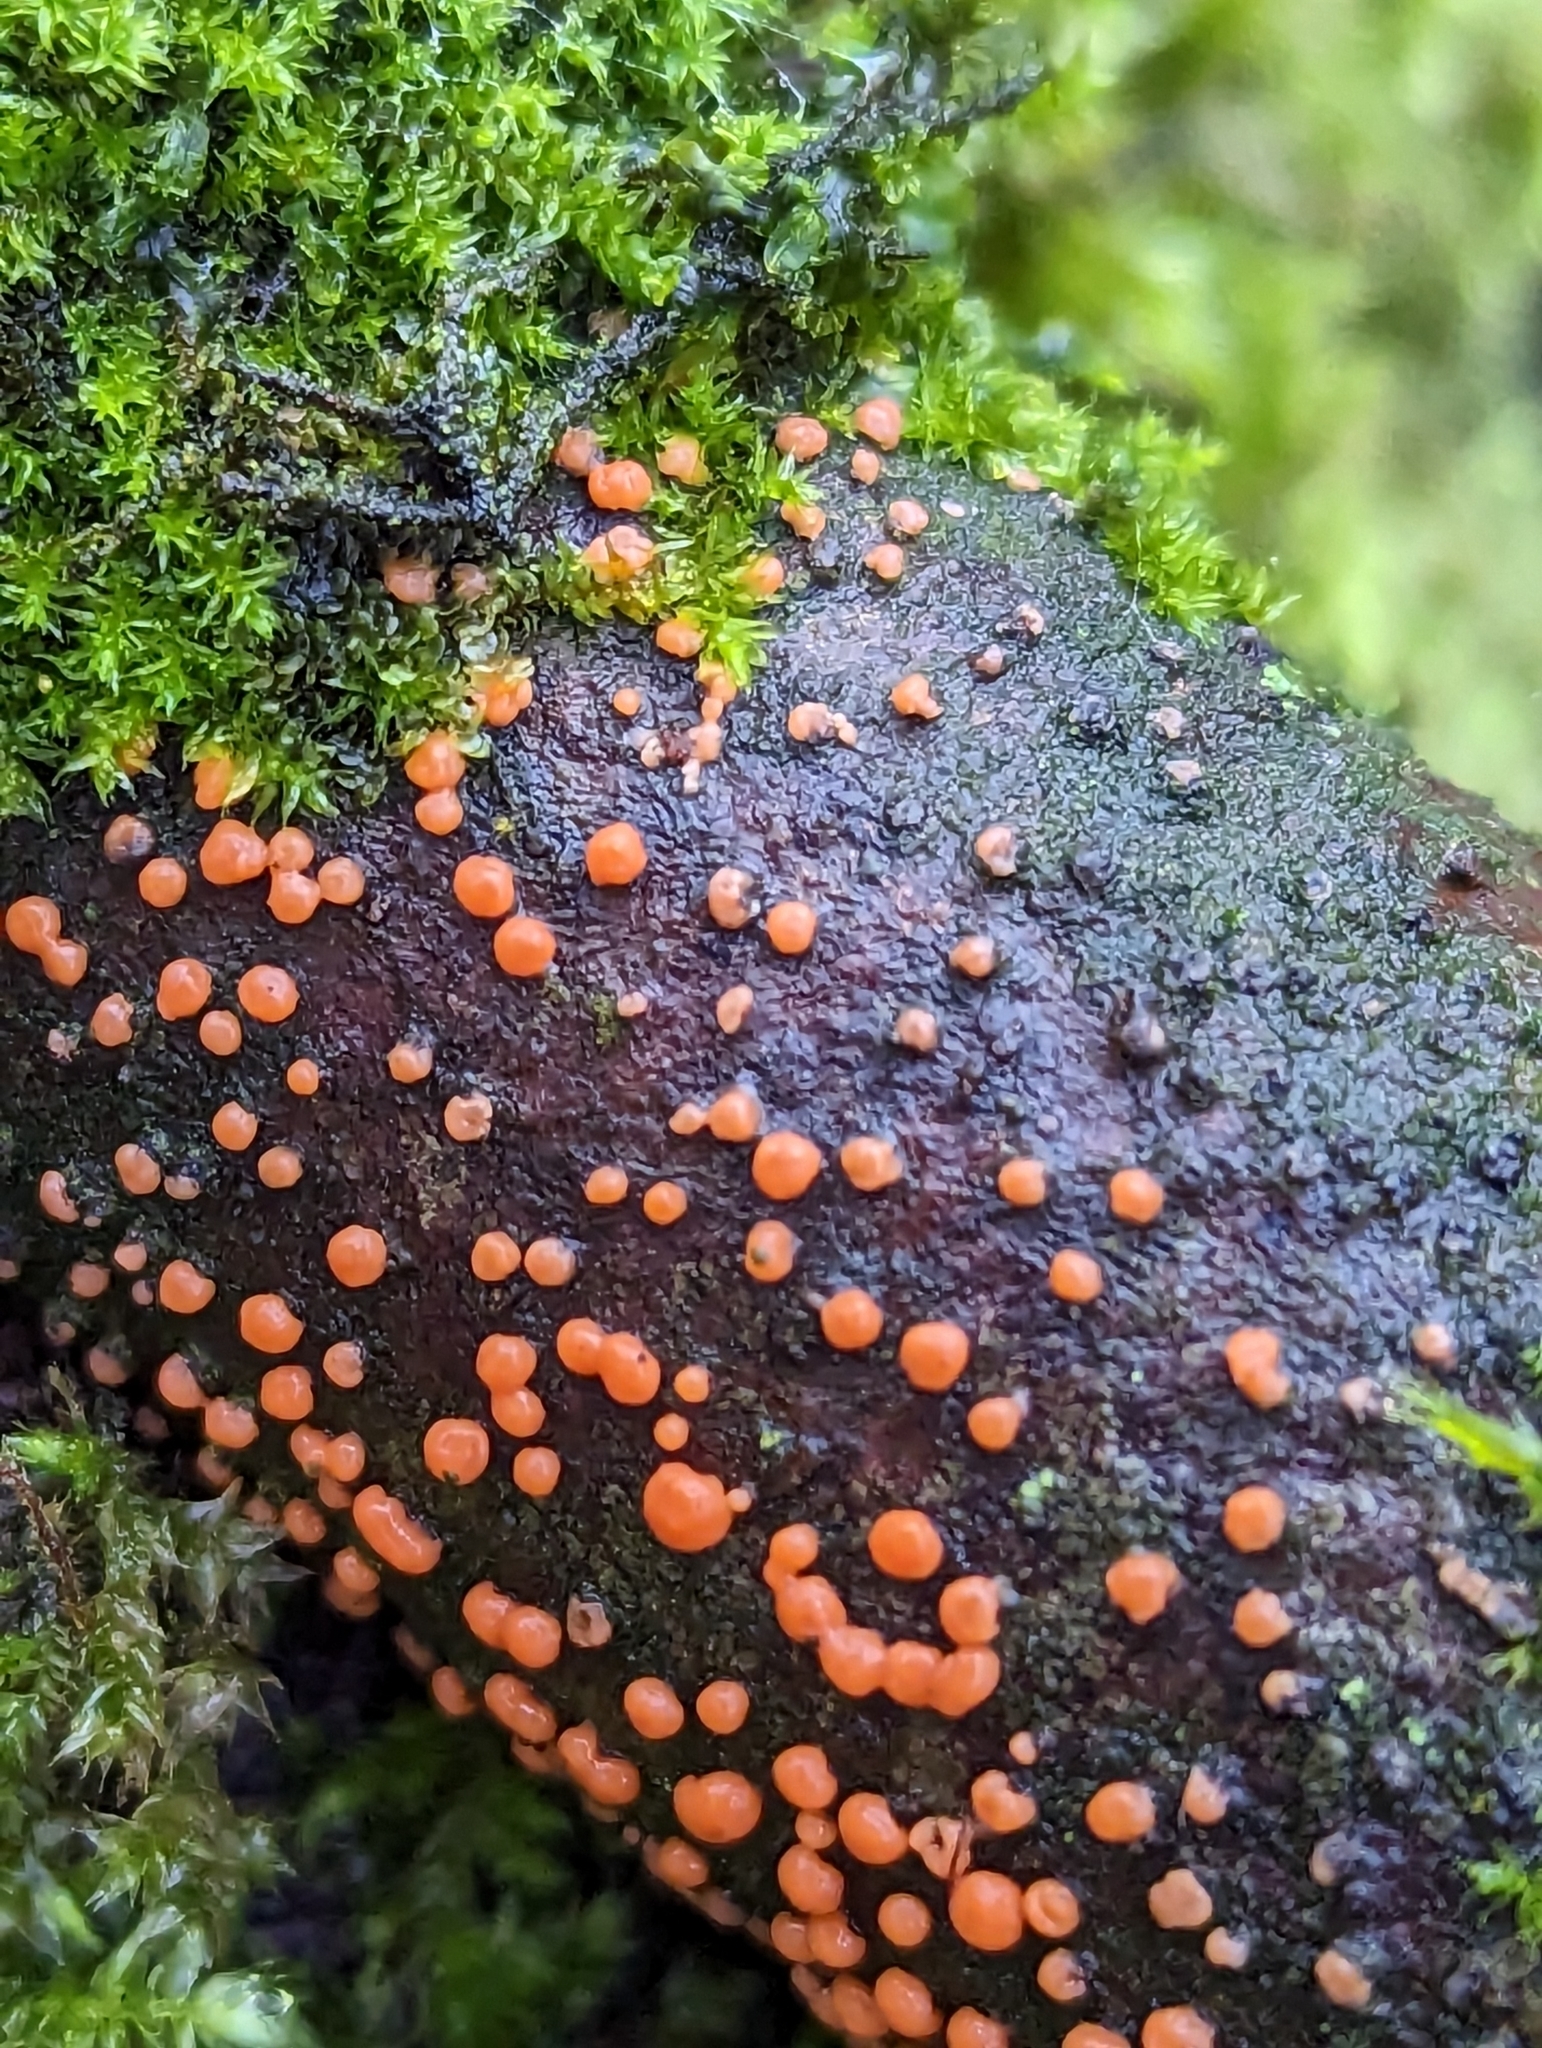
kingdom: Fungi
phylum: Ascomycota
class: Sordariomycetes
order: Hypocreales
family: Nectriaceae
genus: Nectria
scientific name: Nectria cinnabarina
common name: Coral spot
